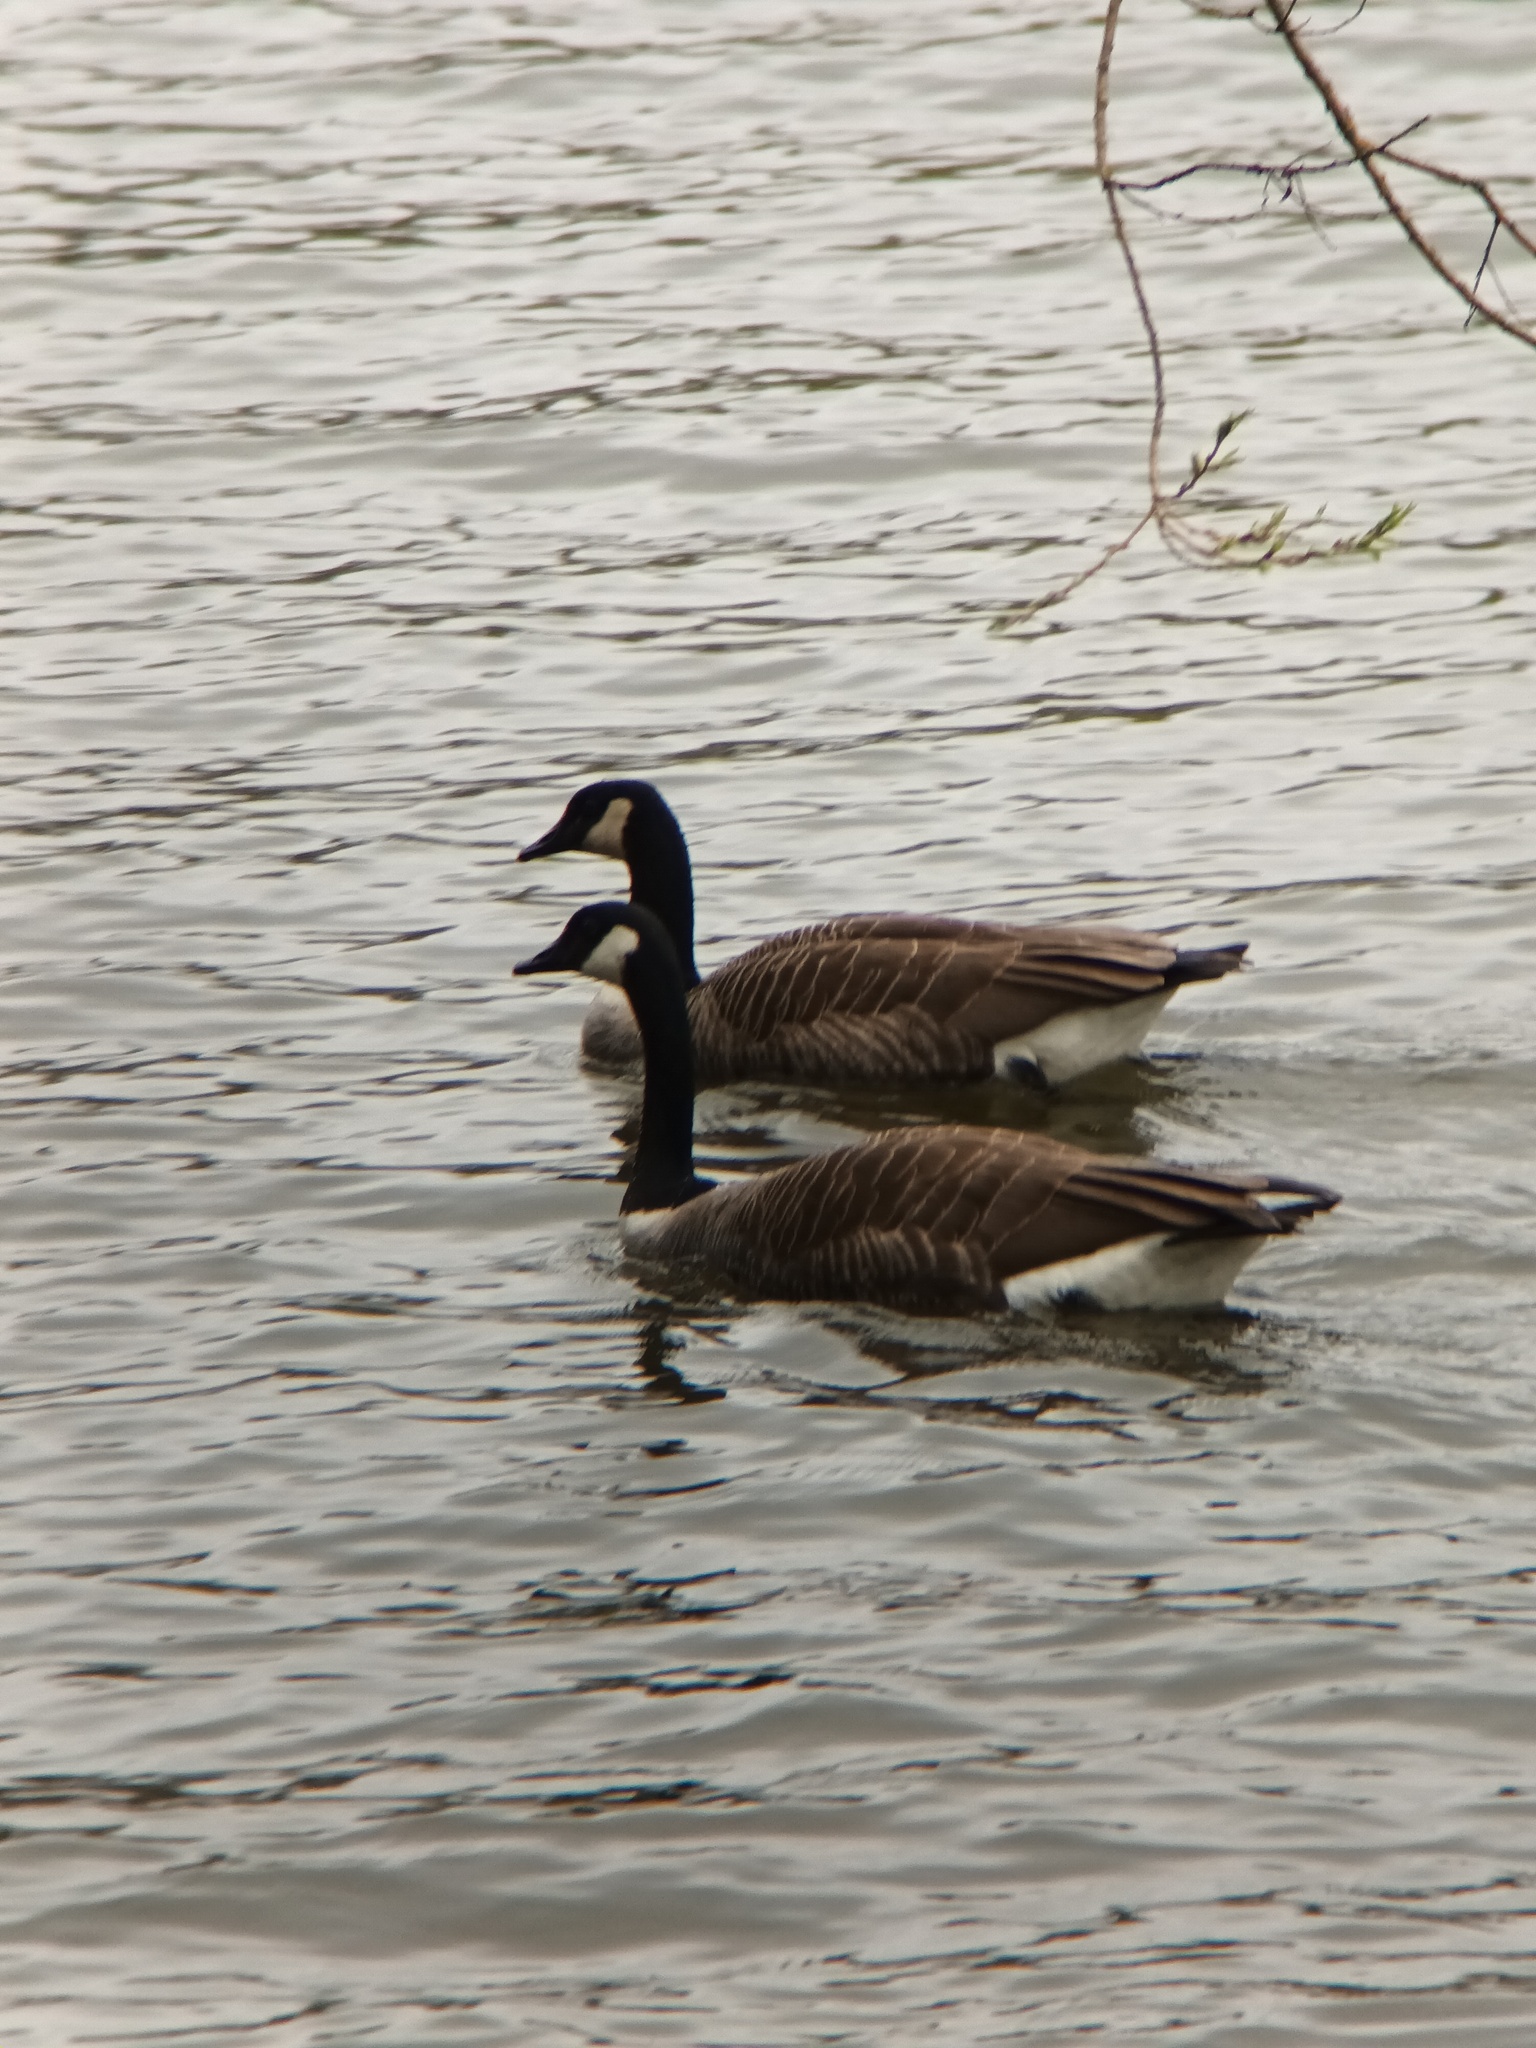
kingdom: Animalia
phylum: Chordata
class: Aves
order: Anseriformes
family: Anatidae
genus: Branta
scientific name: Branta canadensis
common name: Canada goose
